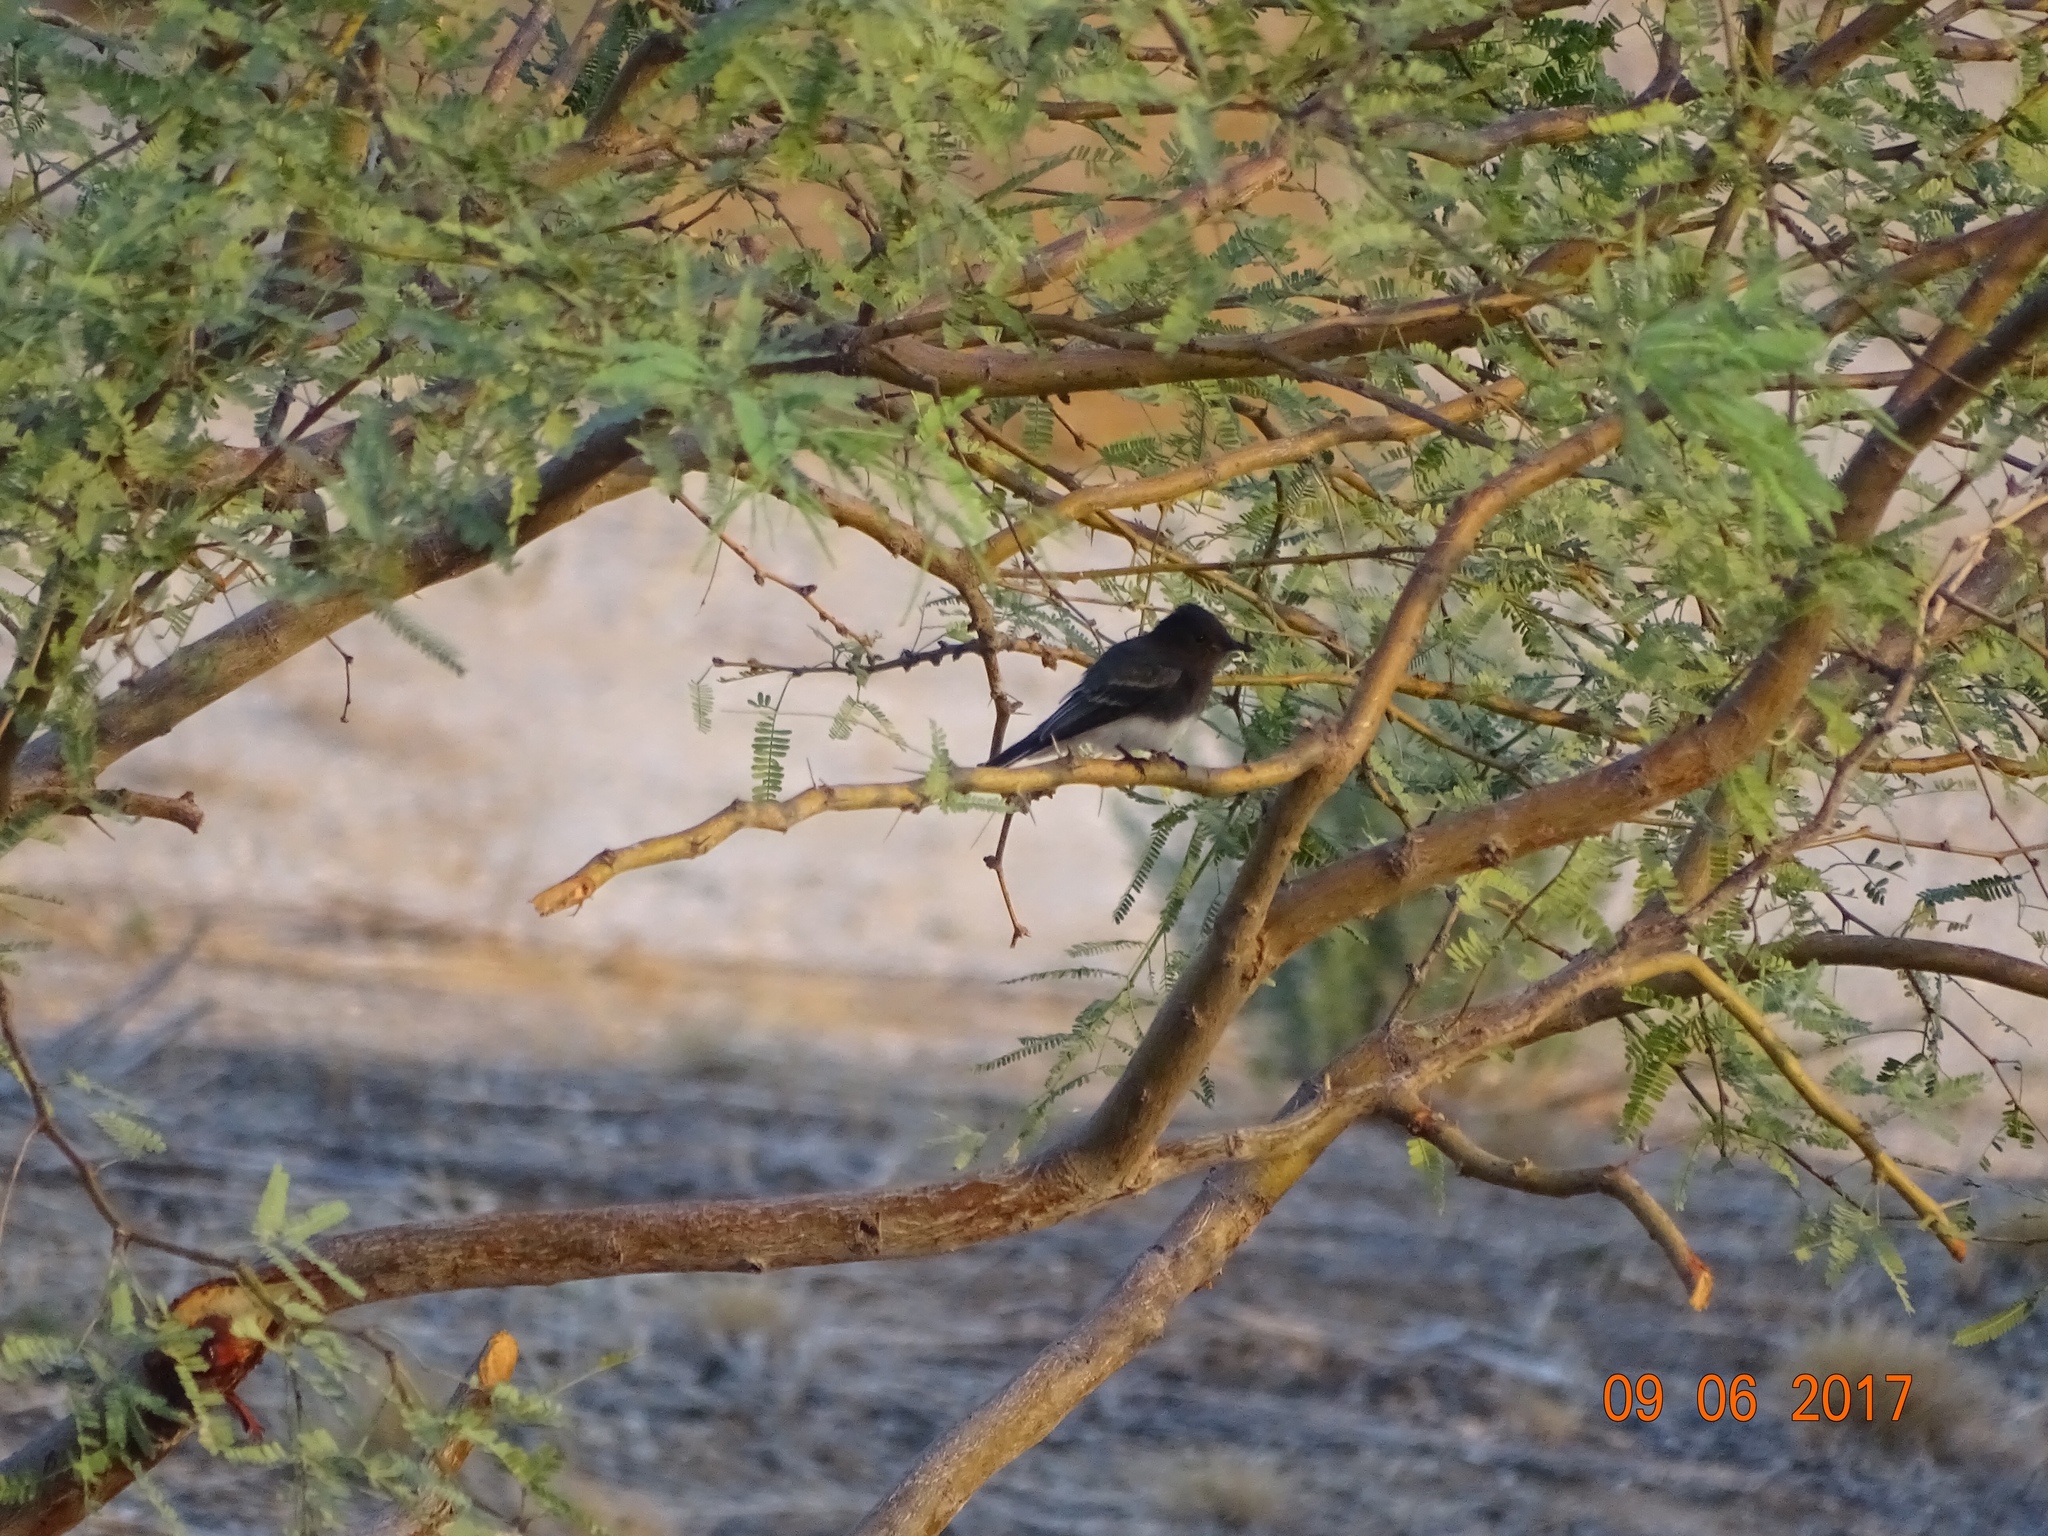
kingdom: Animalia
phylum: Chordata
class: Aves
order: Passeriformes
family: Tyrannidae
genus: Sayornis
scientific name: Sayornis nigricans
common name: Black phoebe
